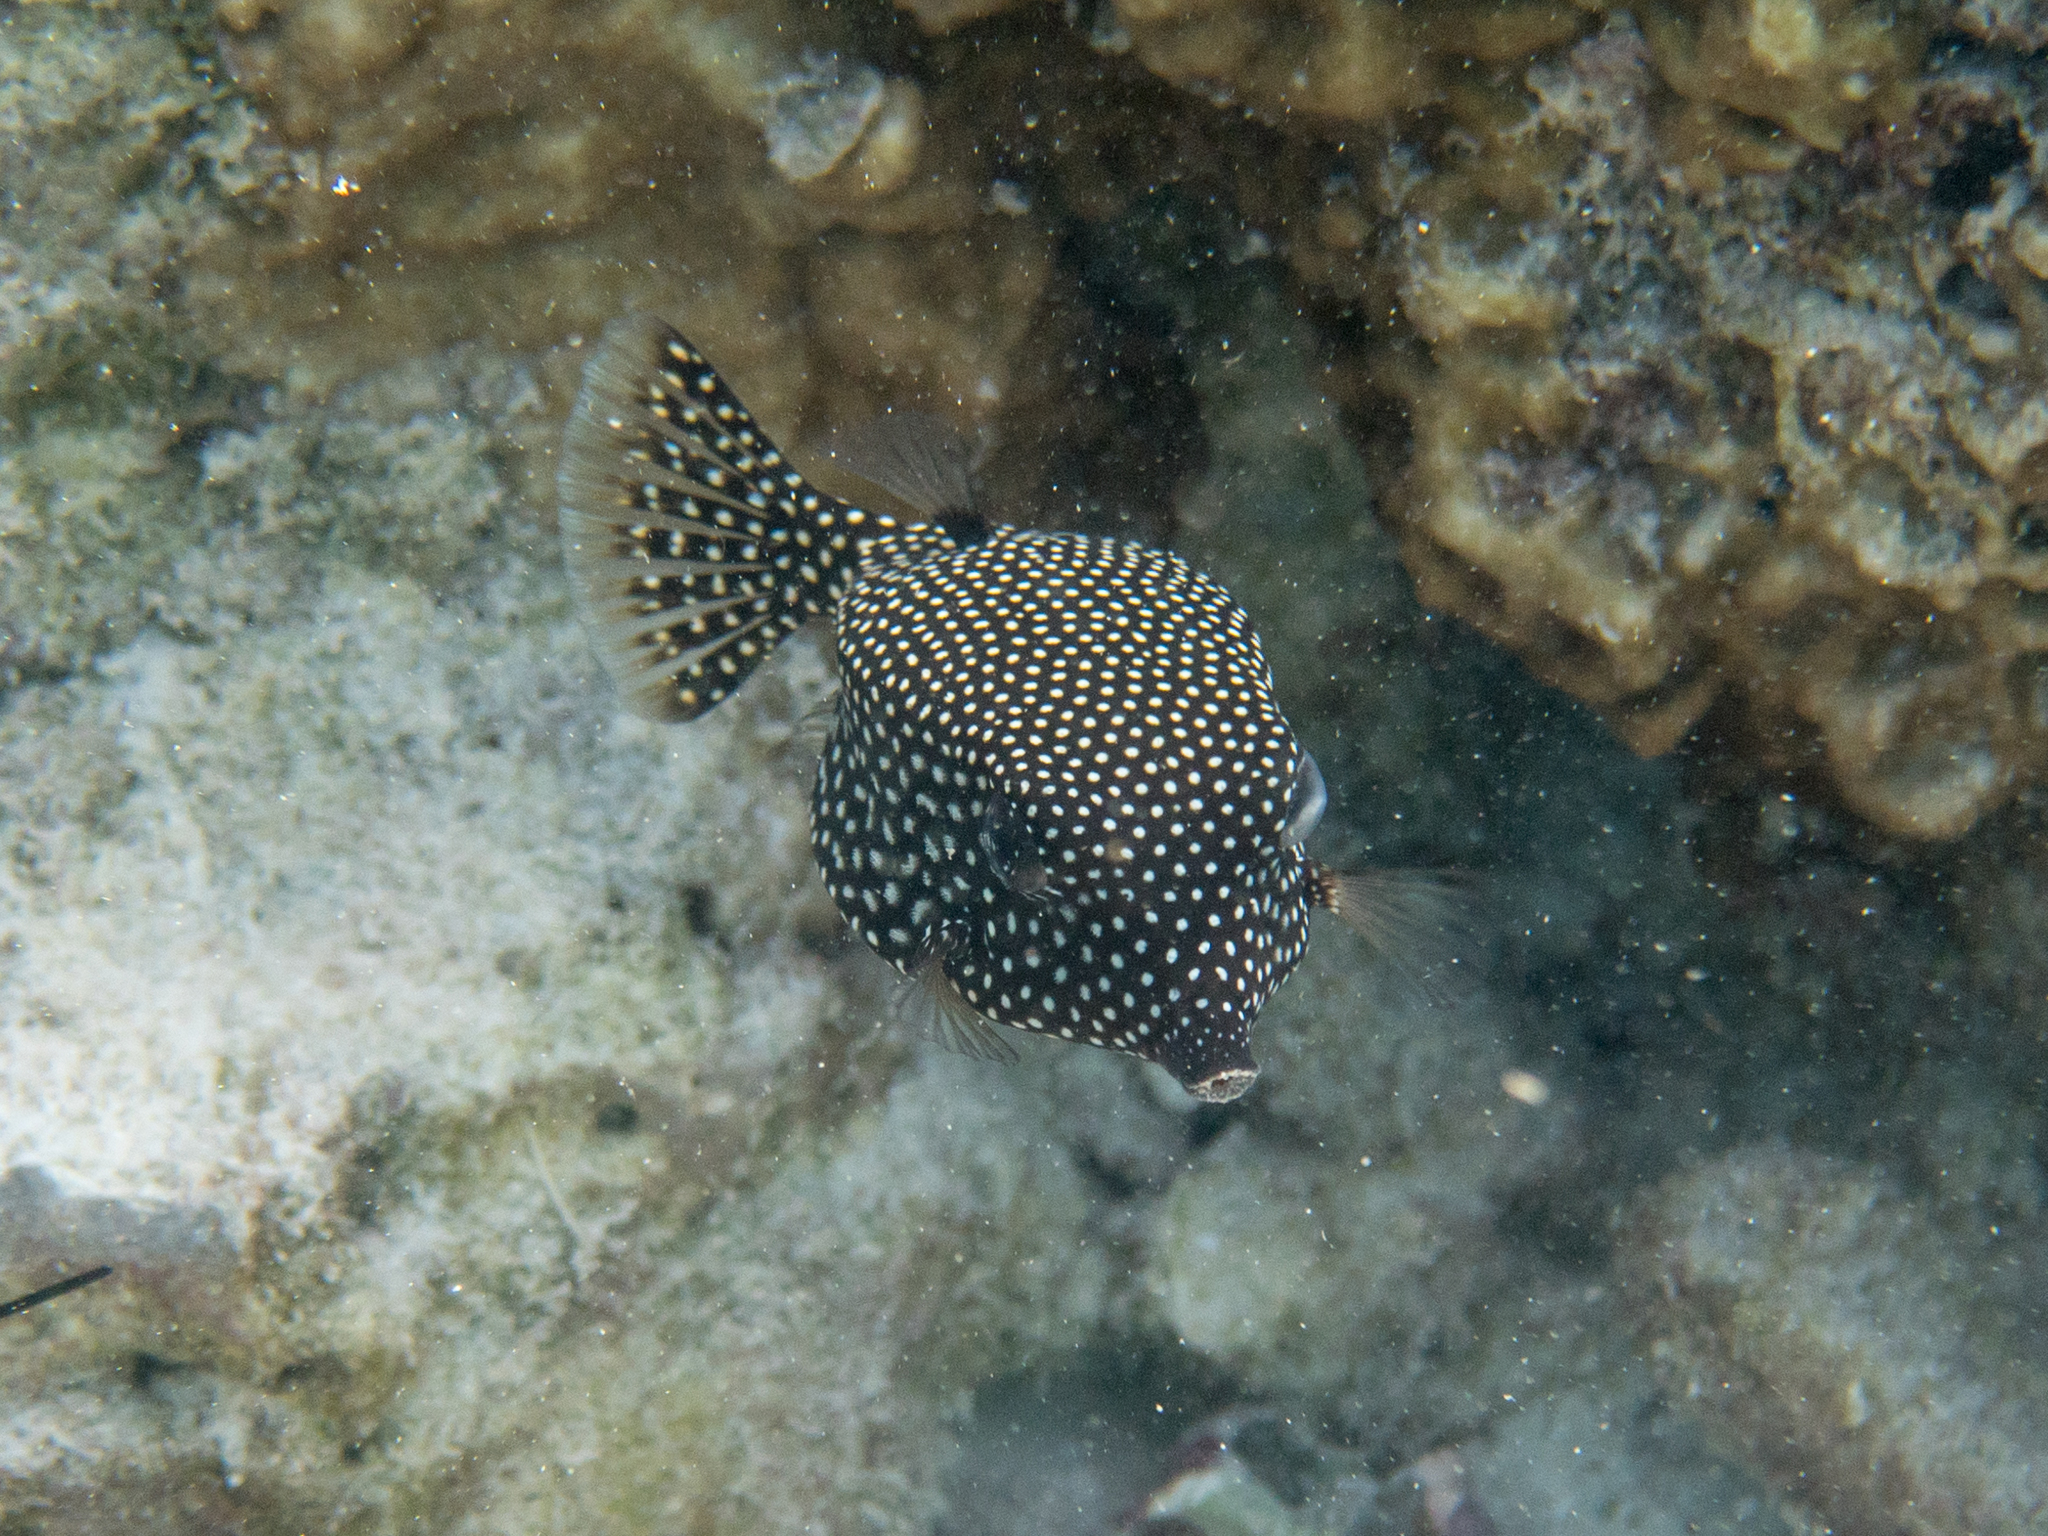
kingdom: Animalia
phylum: Chordata
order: Tetraodontiformes
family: Ostraciidae
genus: Ostracion
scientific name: Ostracion meleagris
